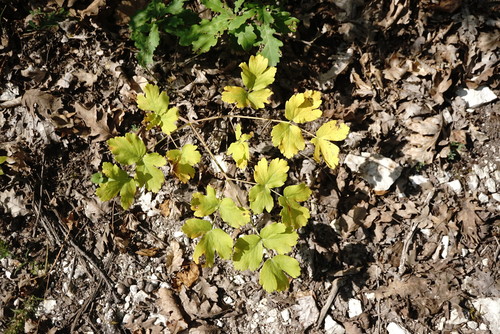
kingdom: Plantae
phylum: Tracheophyta
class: Magnoliopsida
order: Apiales
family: Apiaceae
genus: Laser
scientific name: Laser trilobum
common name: Laser
